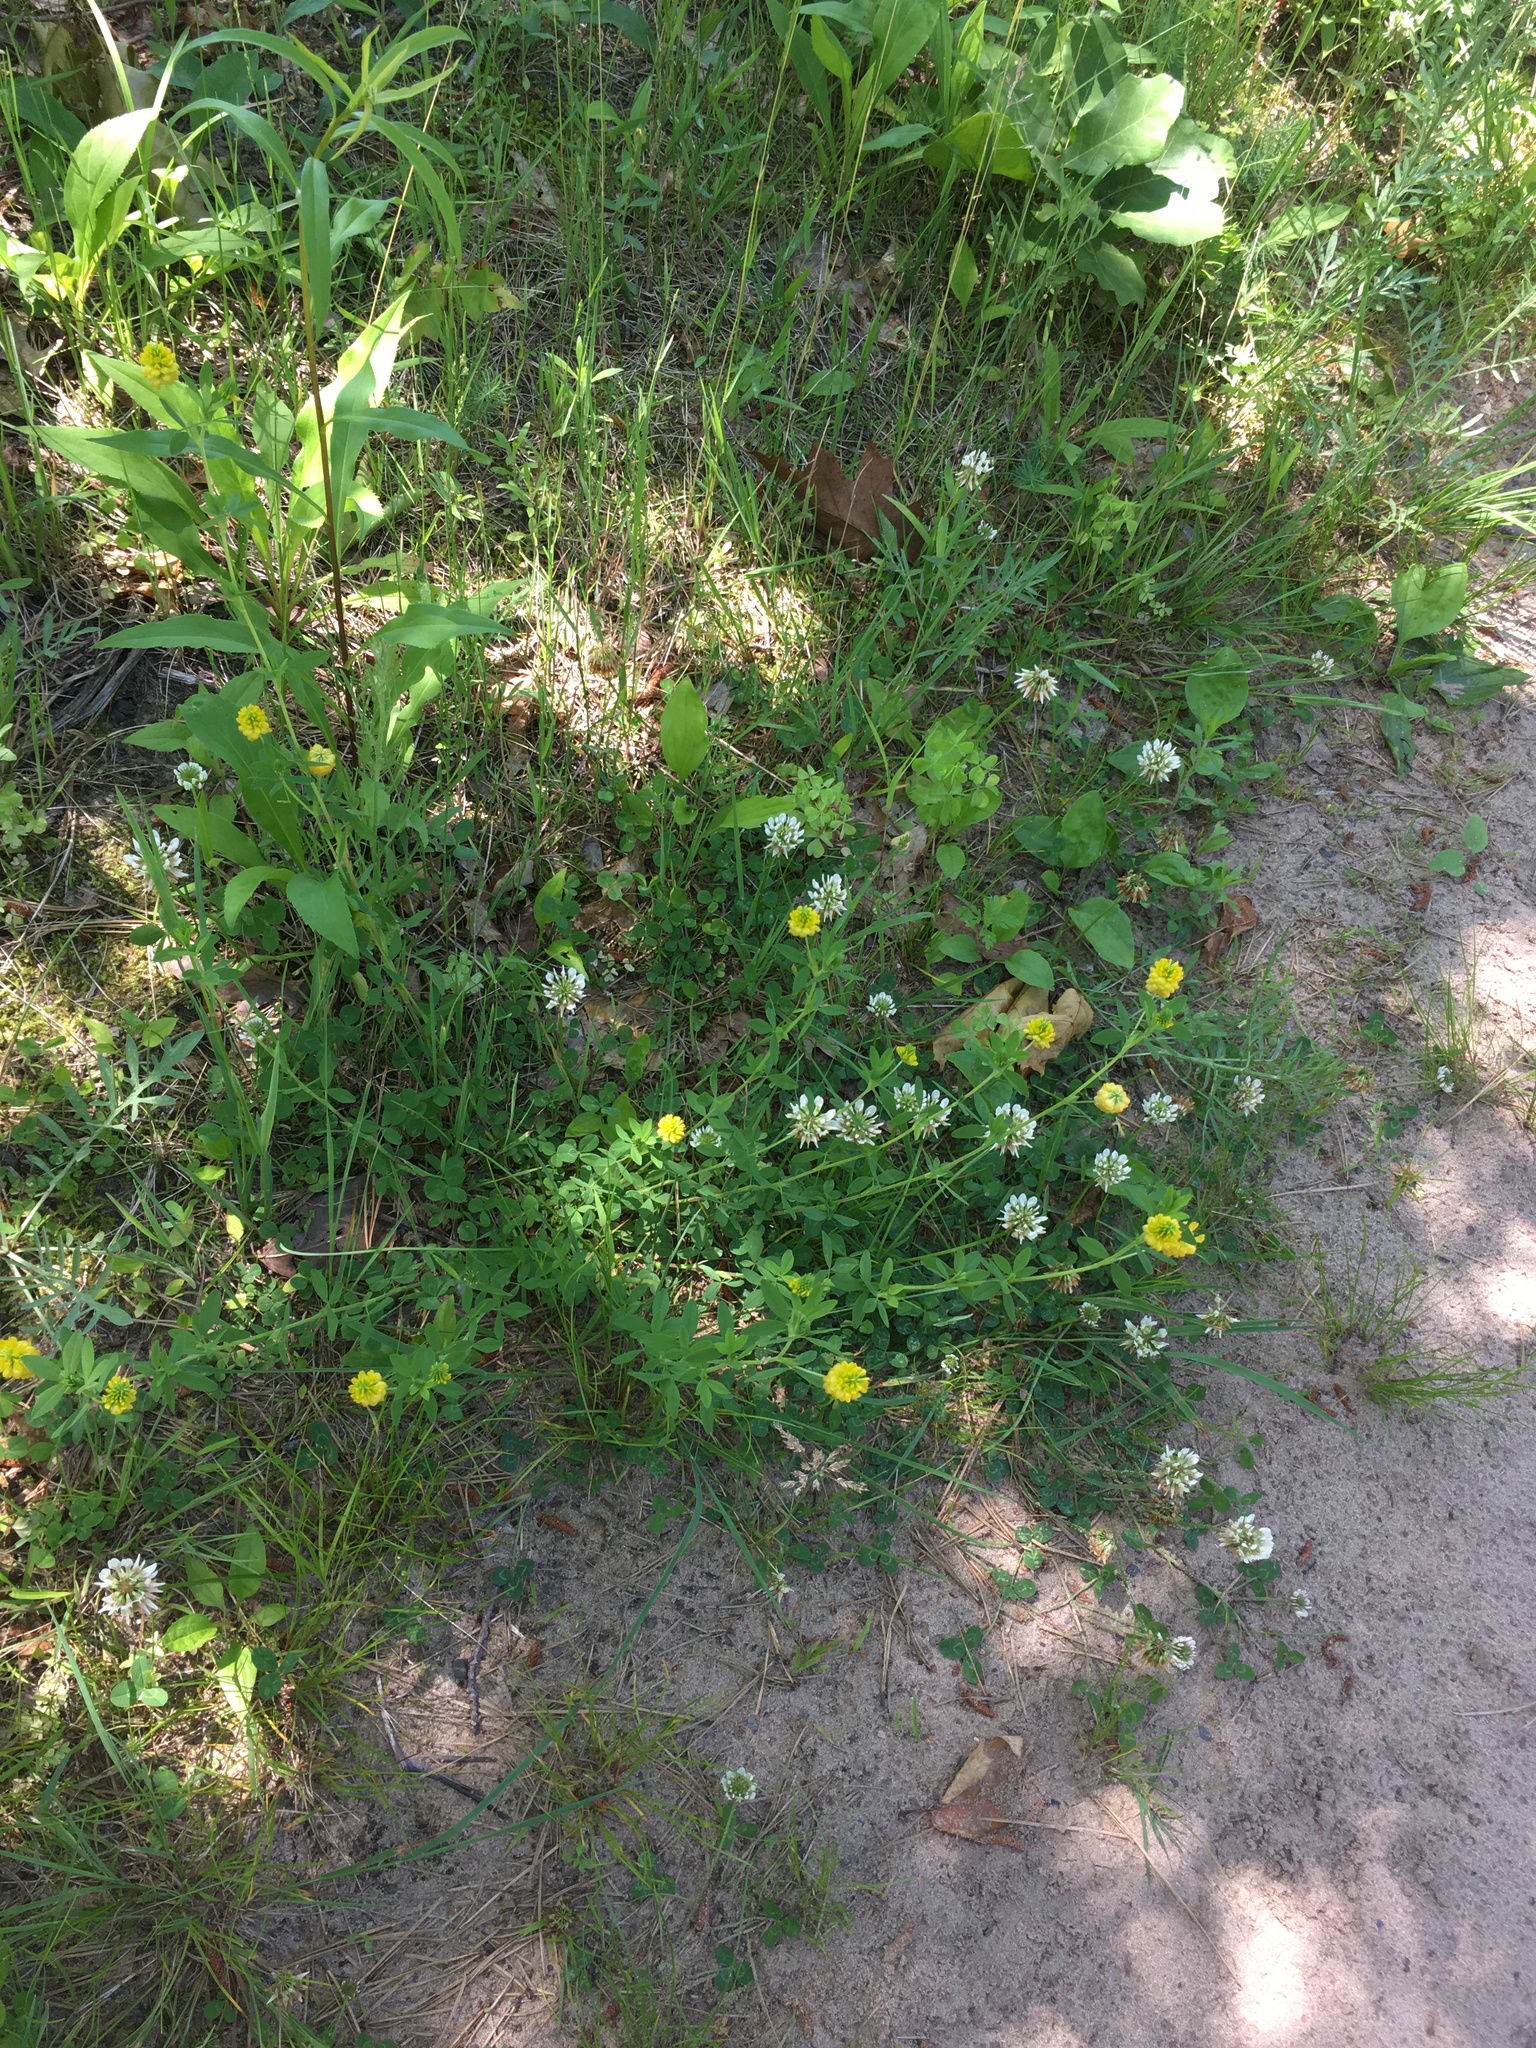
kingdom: Plantae
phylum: Tracheophyta
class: Magnoliopsida
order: Fabales
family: Fabaceae
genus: Trifolium
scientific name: Trifolium aureum
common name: Golden clover
